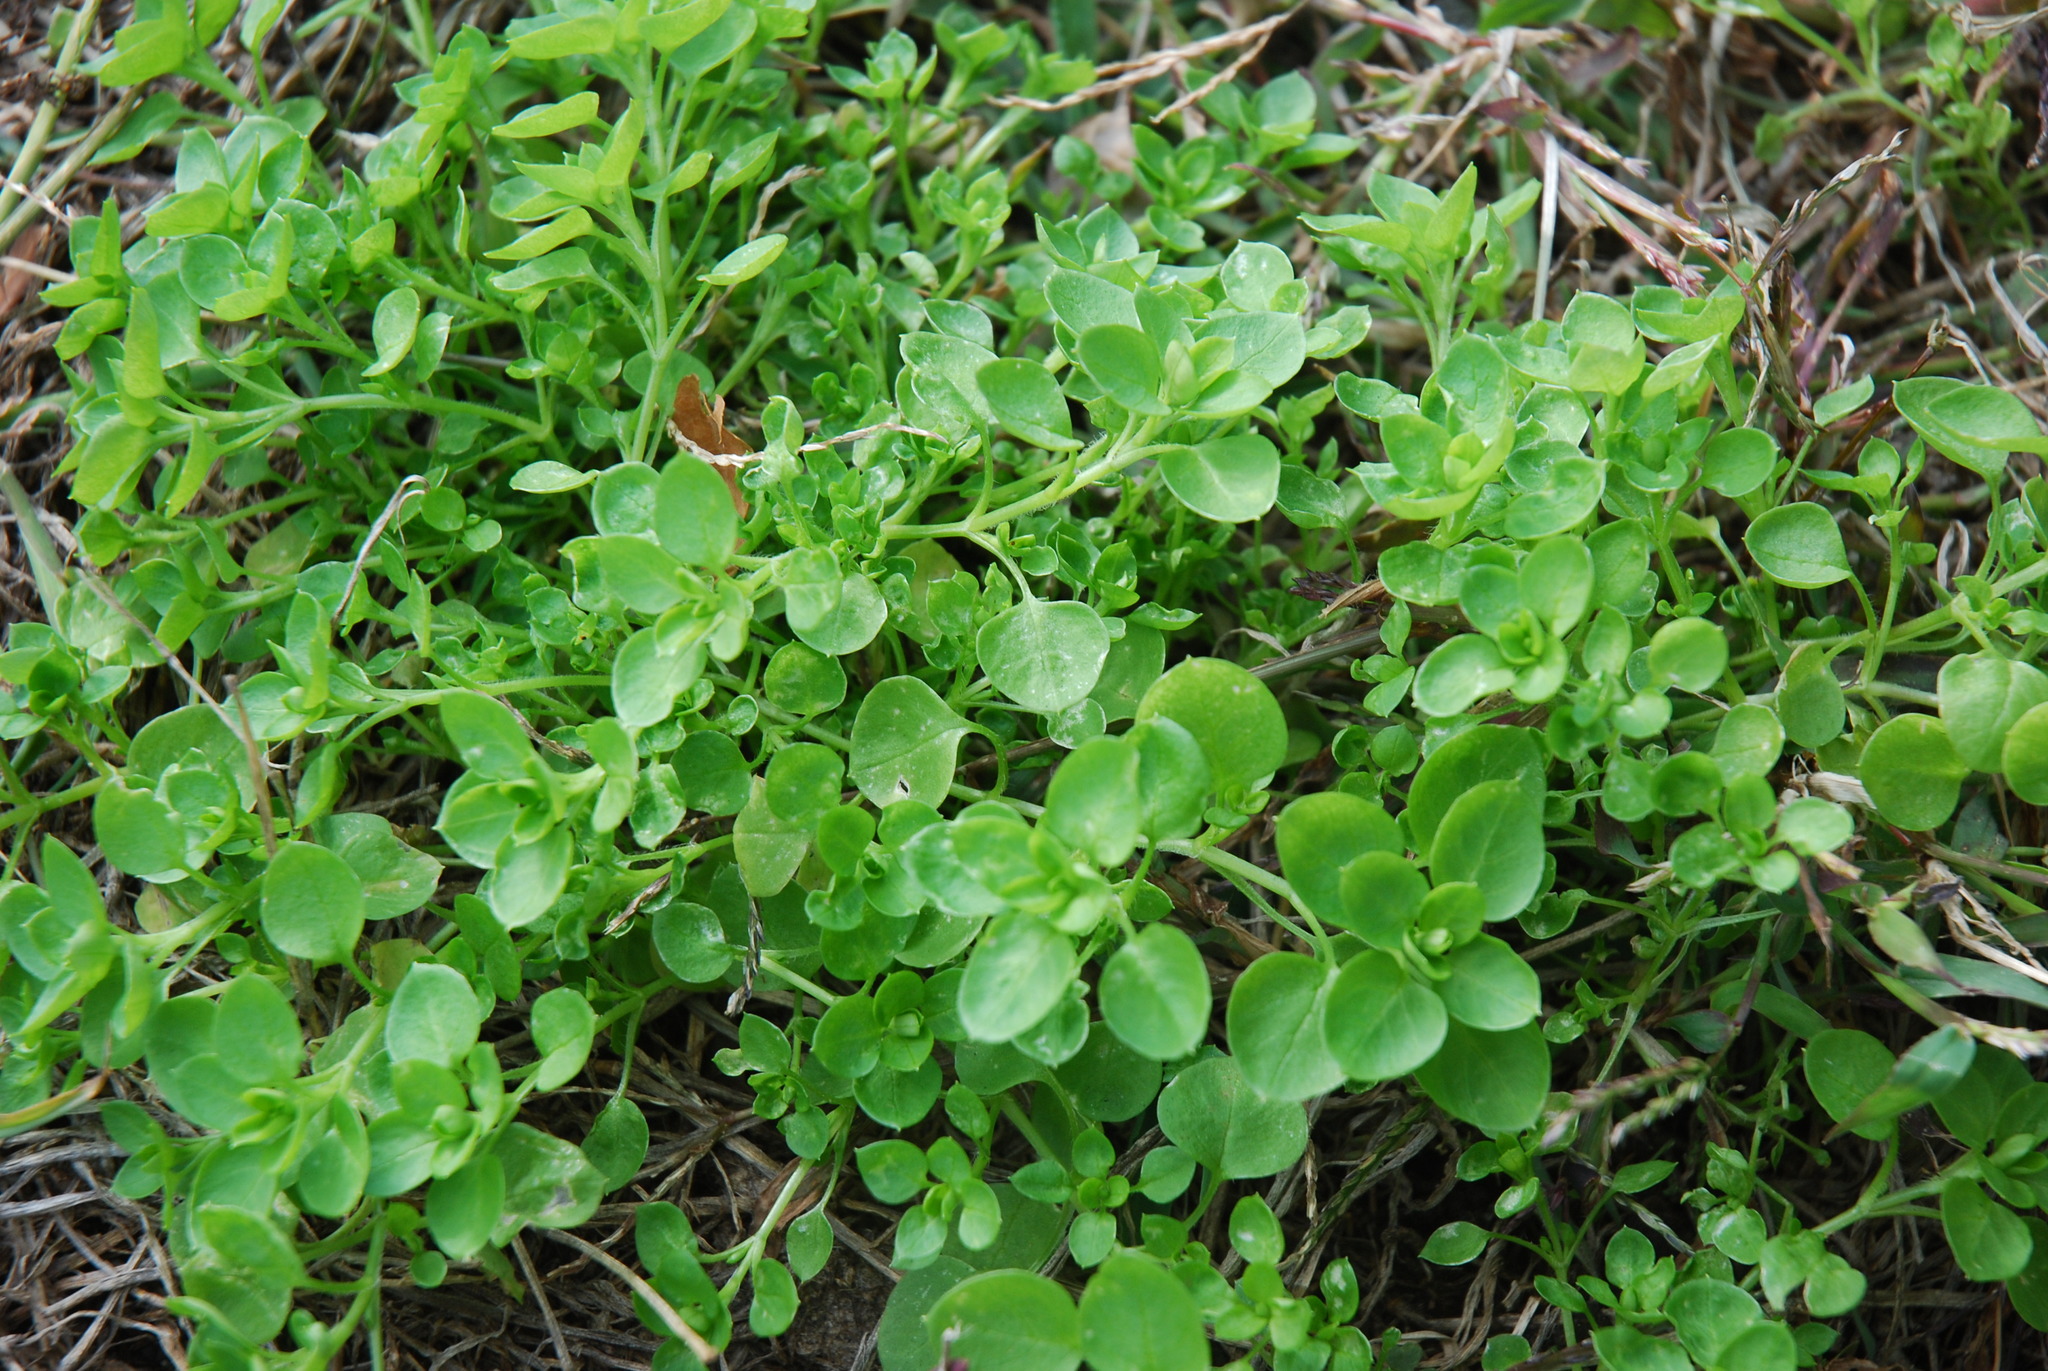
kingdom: Plantae
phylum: Tracheophyta
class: Magnoliopsida
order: Caryophyllales
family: Caryophyllaceae
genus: Stellaria
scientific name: Stellaria media
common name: Common chickweed
